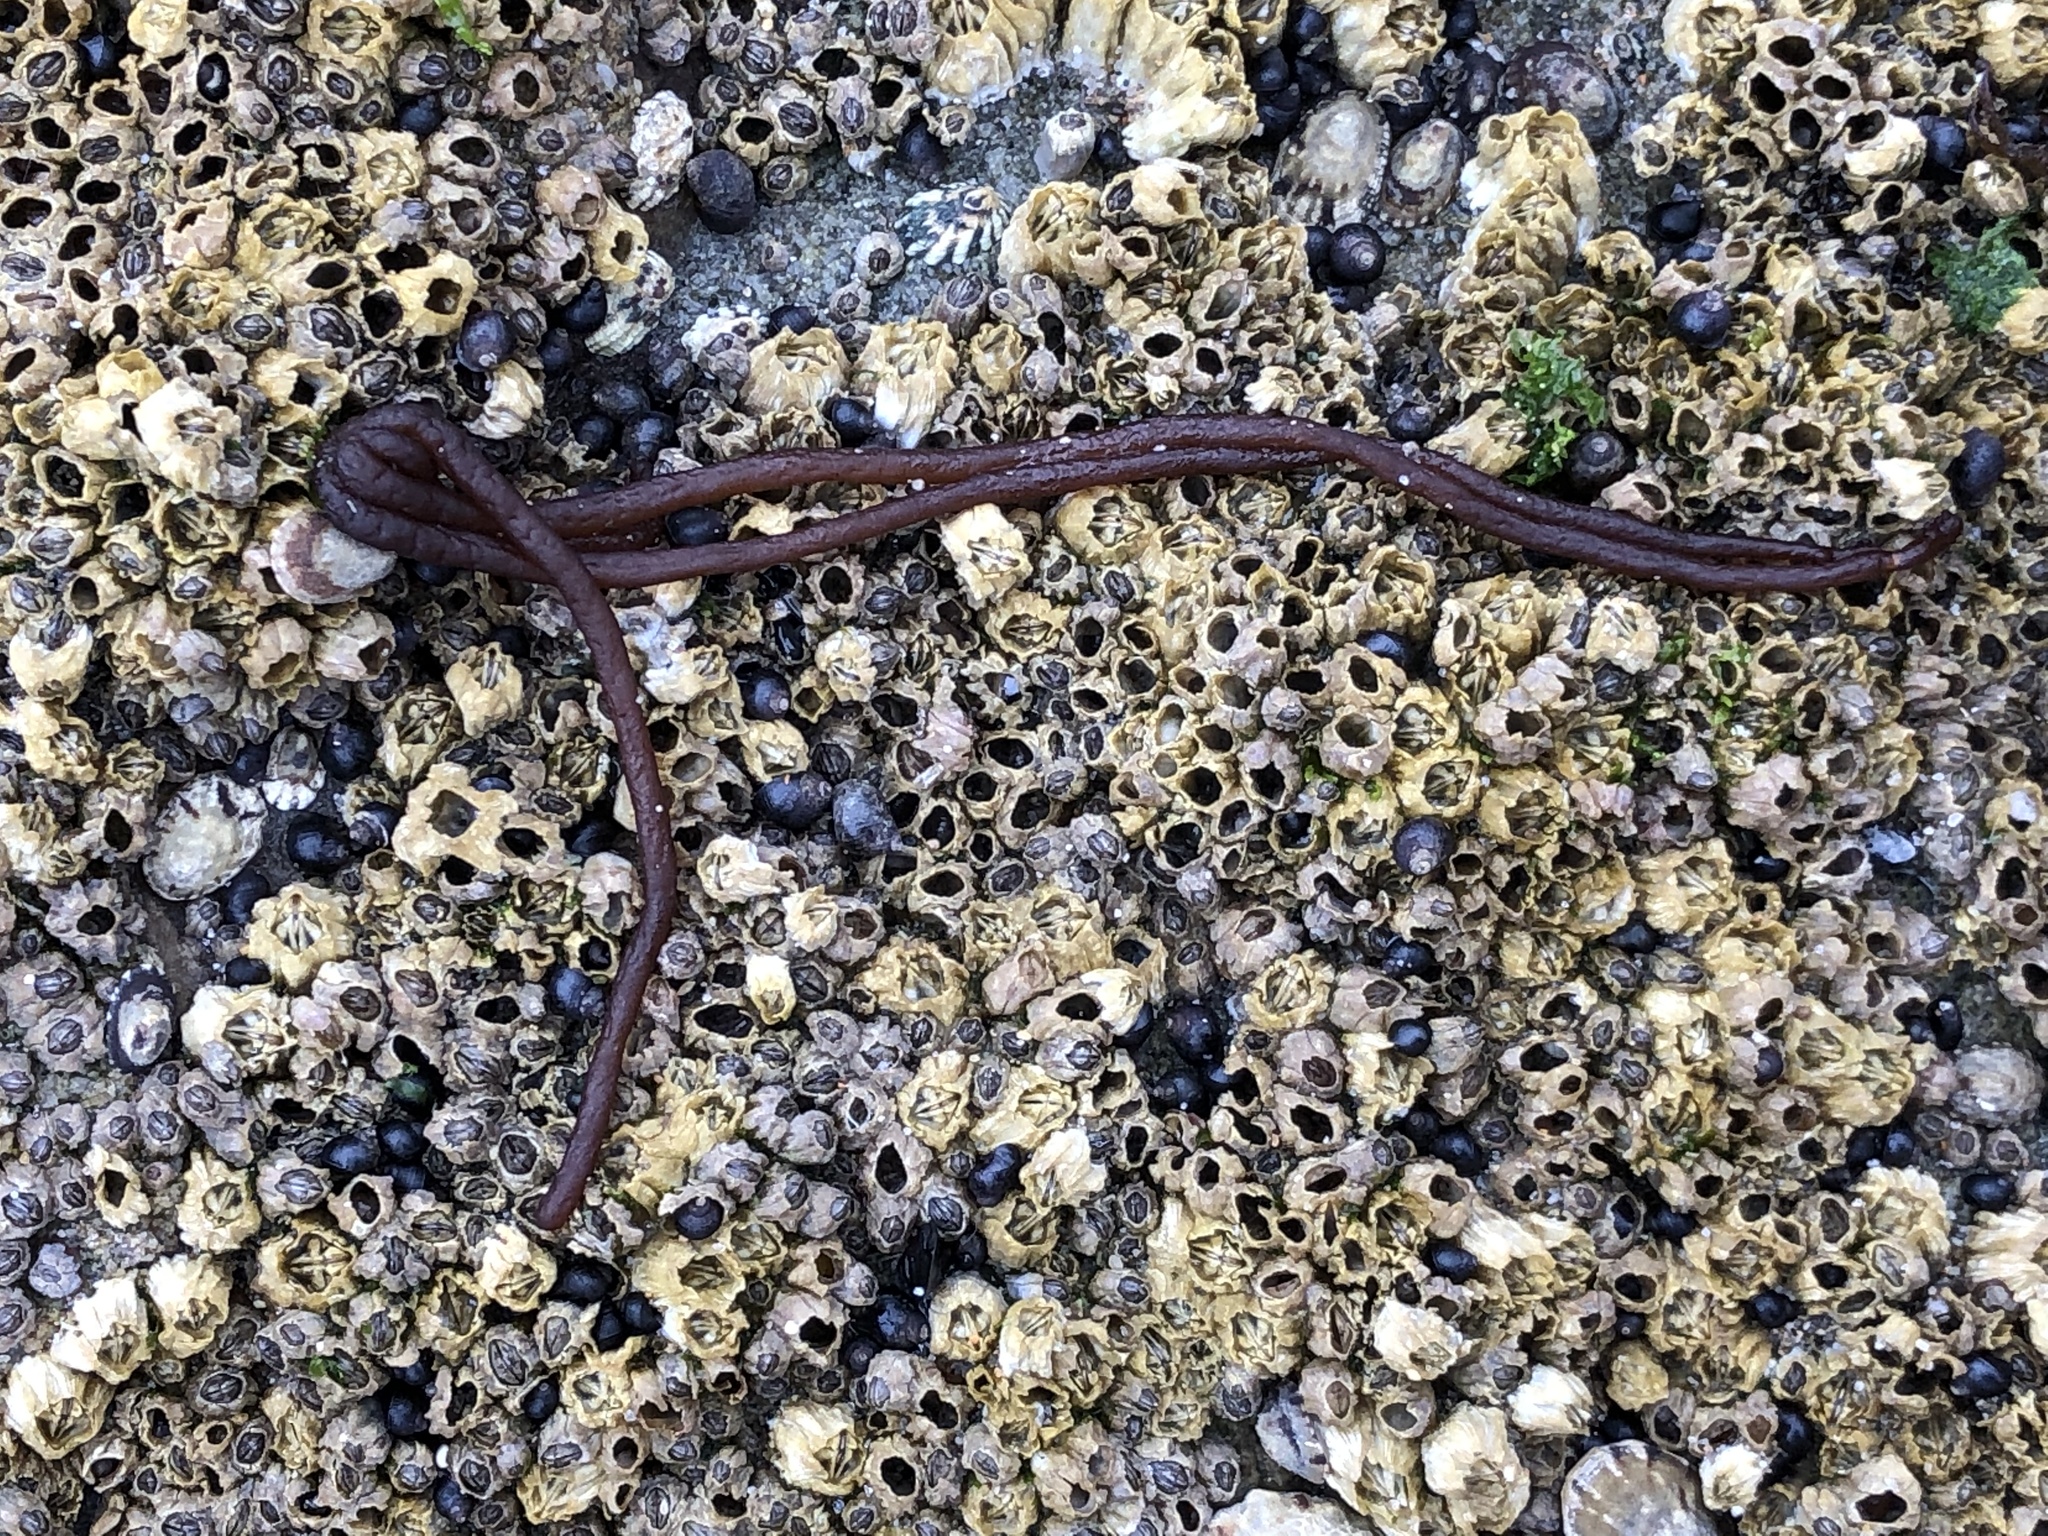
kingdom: Plantae
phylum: Rhodophyta
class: Florideophyceae
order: Nemaliales
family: Nemaliaceae
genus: Nemalion
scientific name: Nemalion elminthoides
